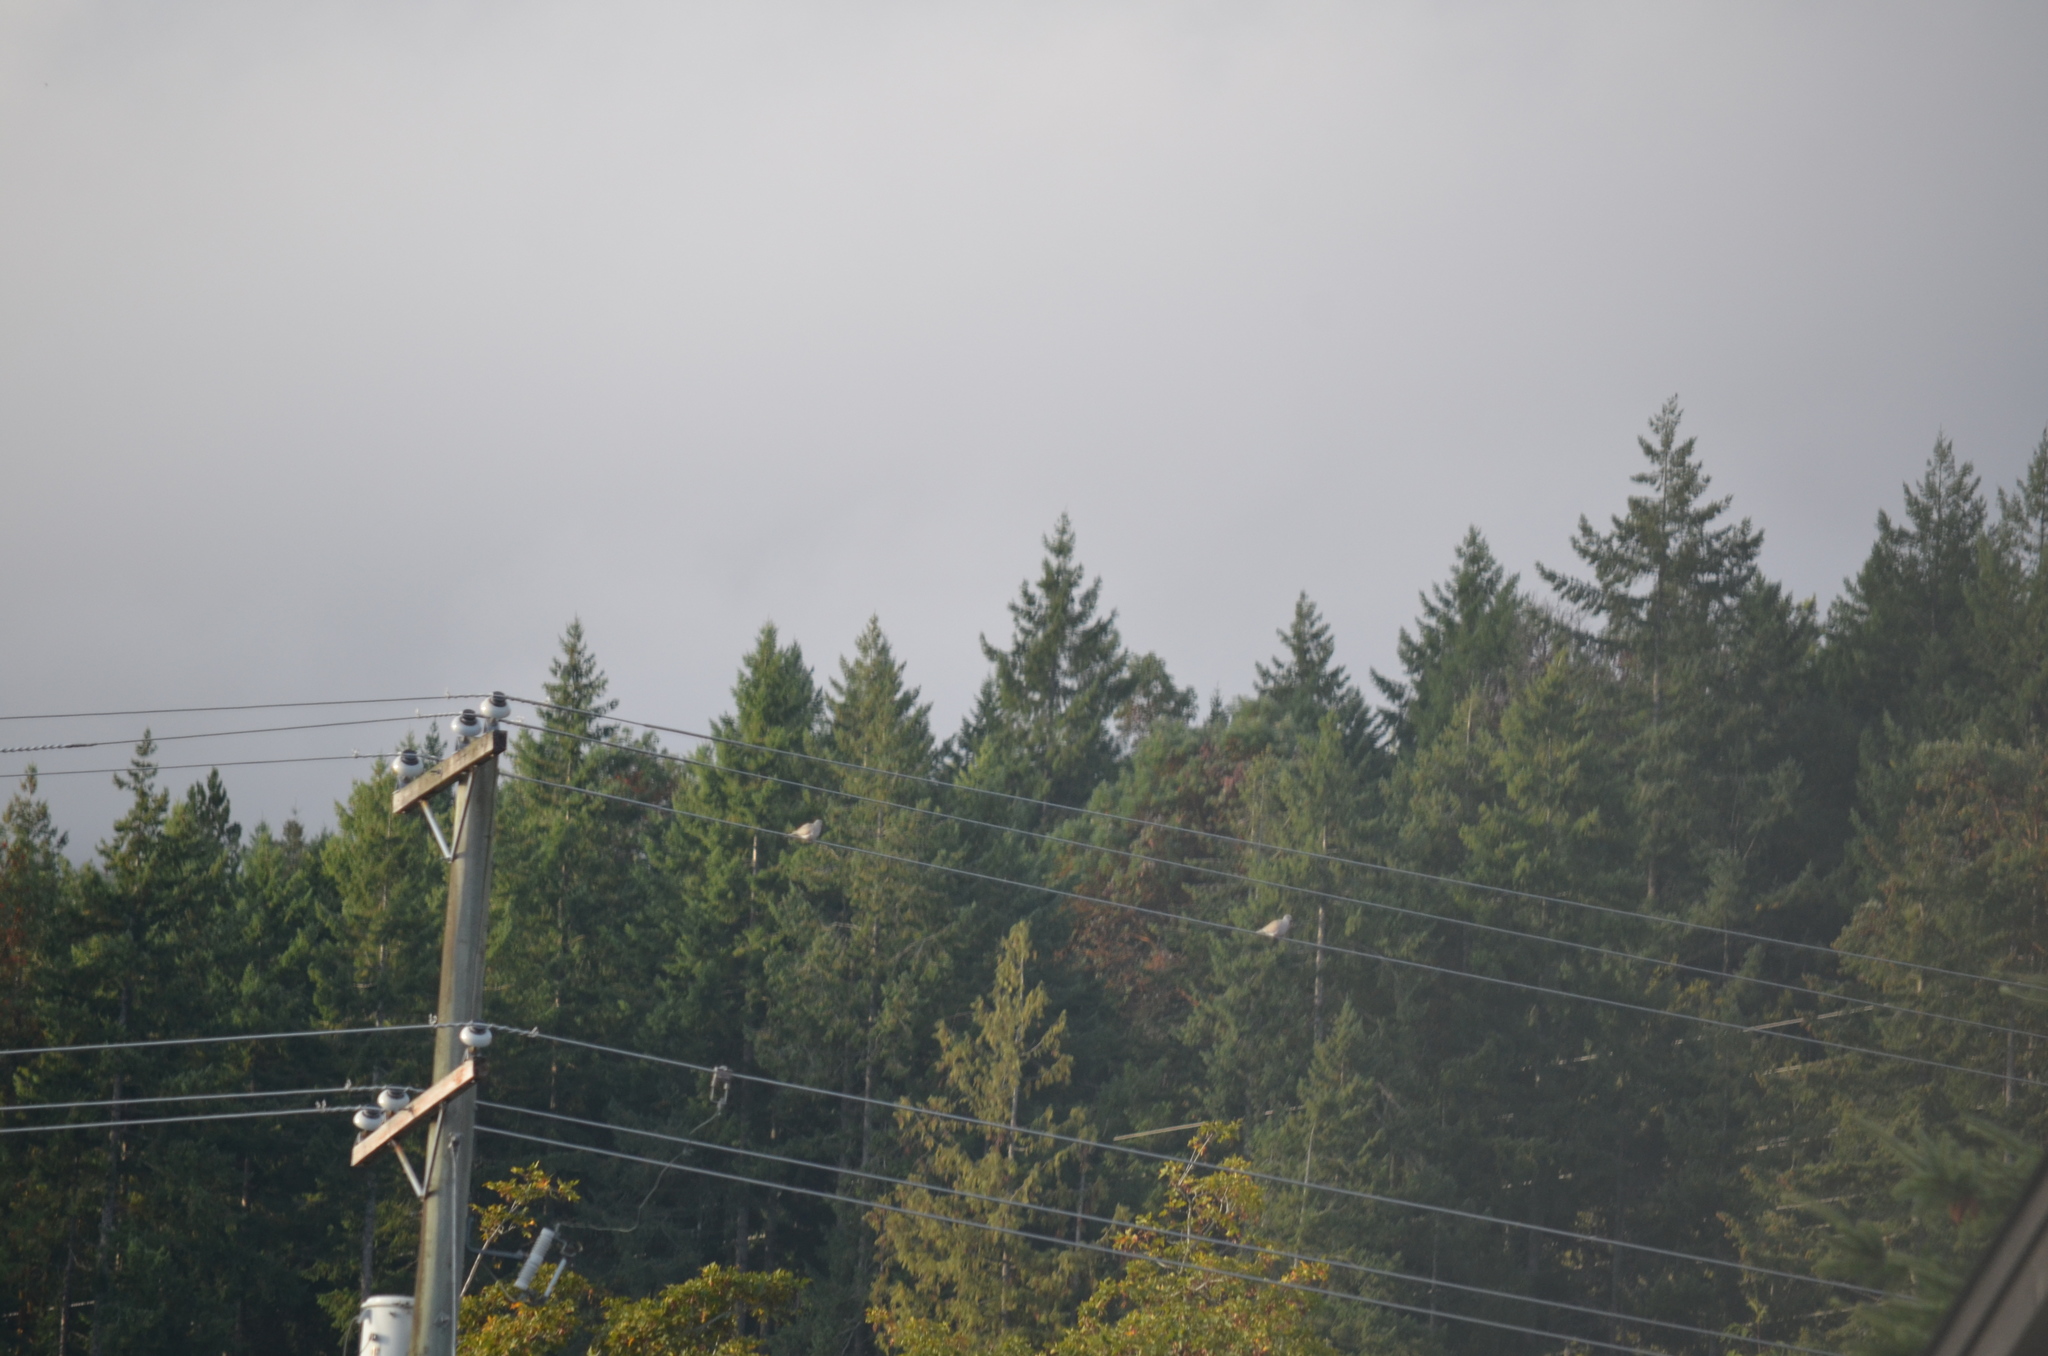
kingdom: Animalia
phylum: Chordata
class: Aves
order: Columbiformes
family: Columbidae
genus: Streptopelia
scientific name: Streptopelia decaocto
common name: Eurasian collared dove
